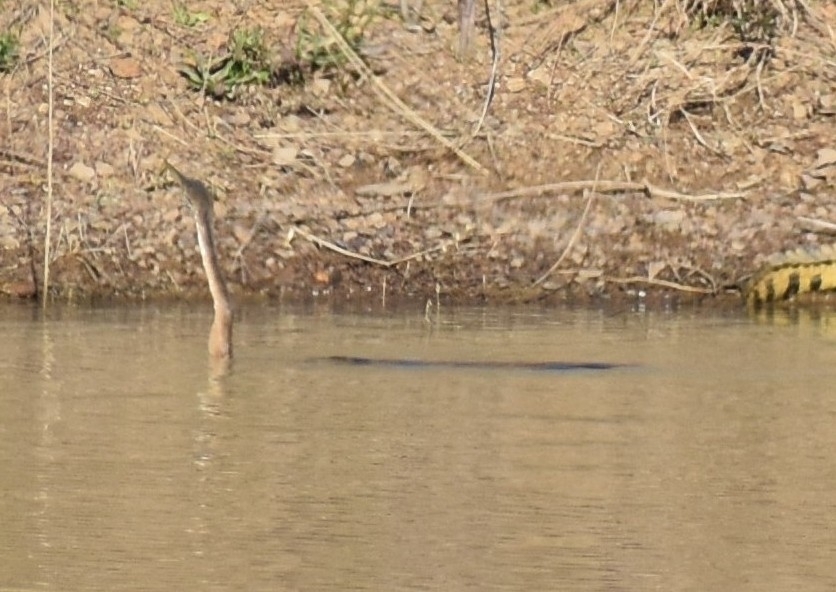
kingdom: Animalia
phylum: Chordata
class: Aves
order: Suliformes
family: Anhingidae
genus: Anhinga
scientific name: Anhinga rufa
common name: African darter
